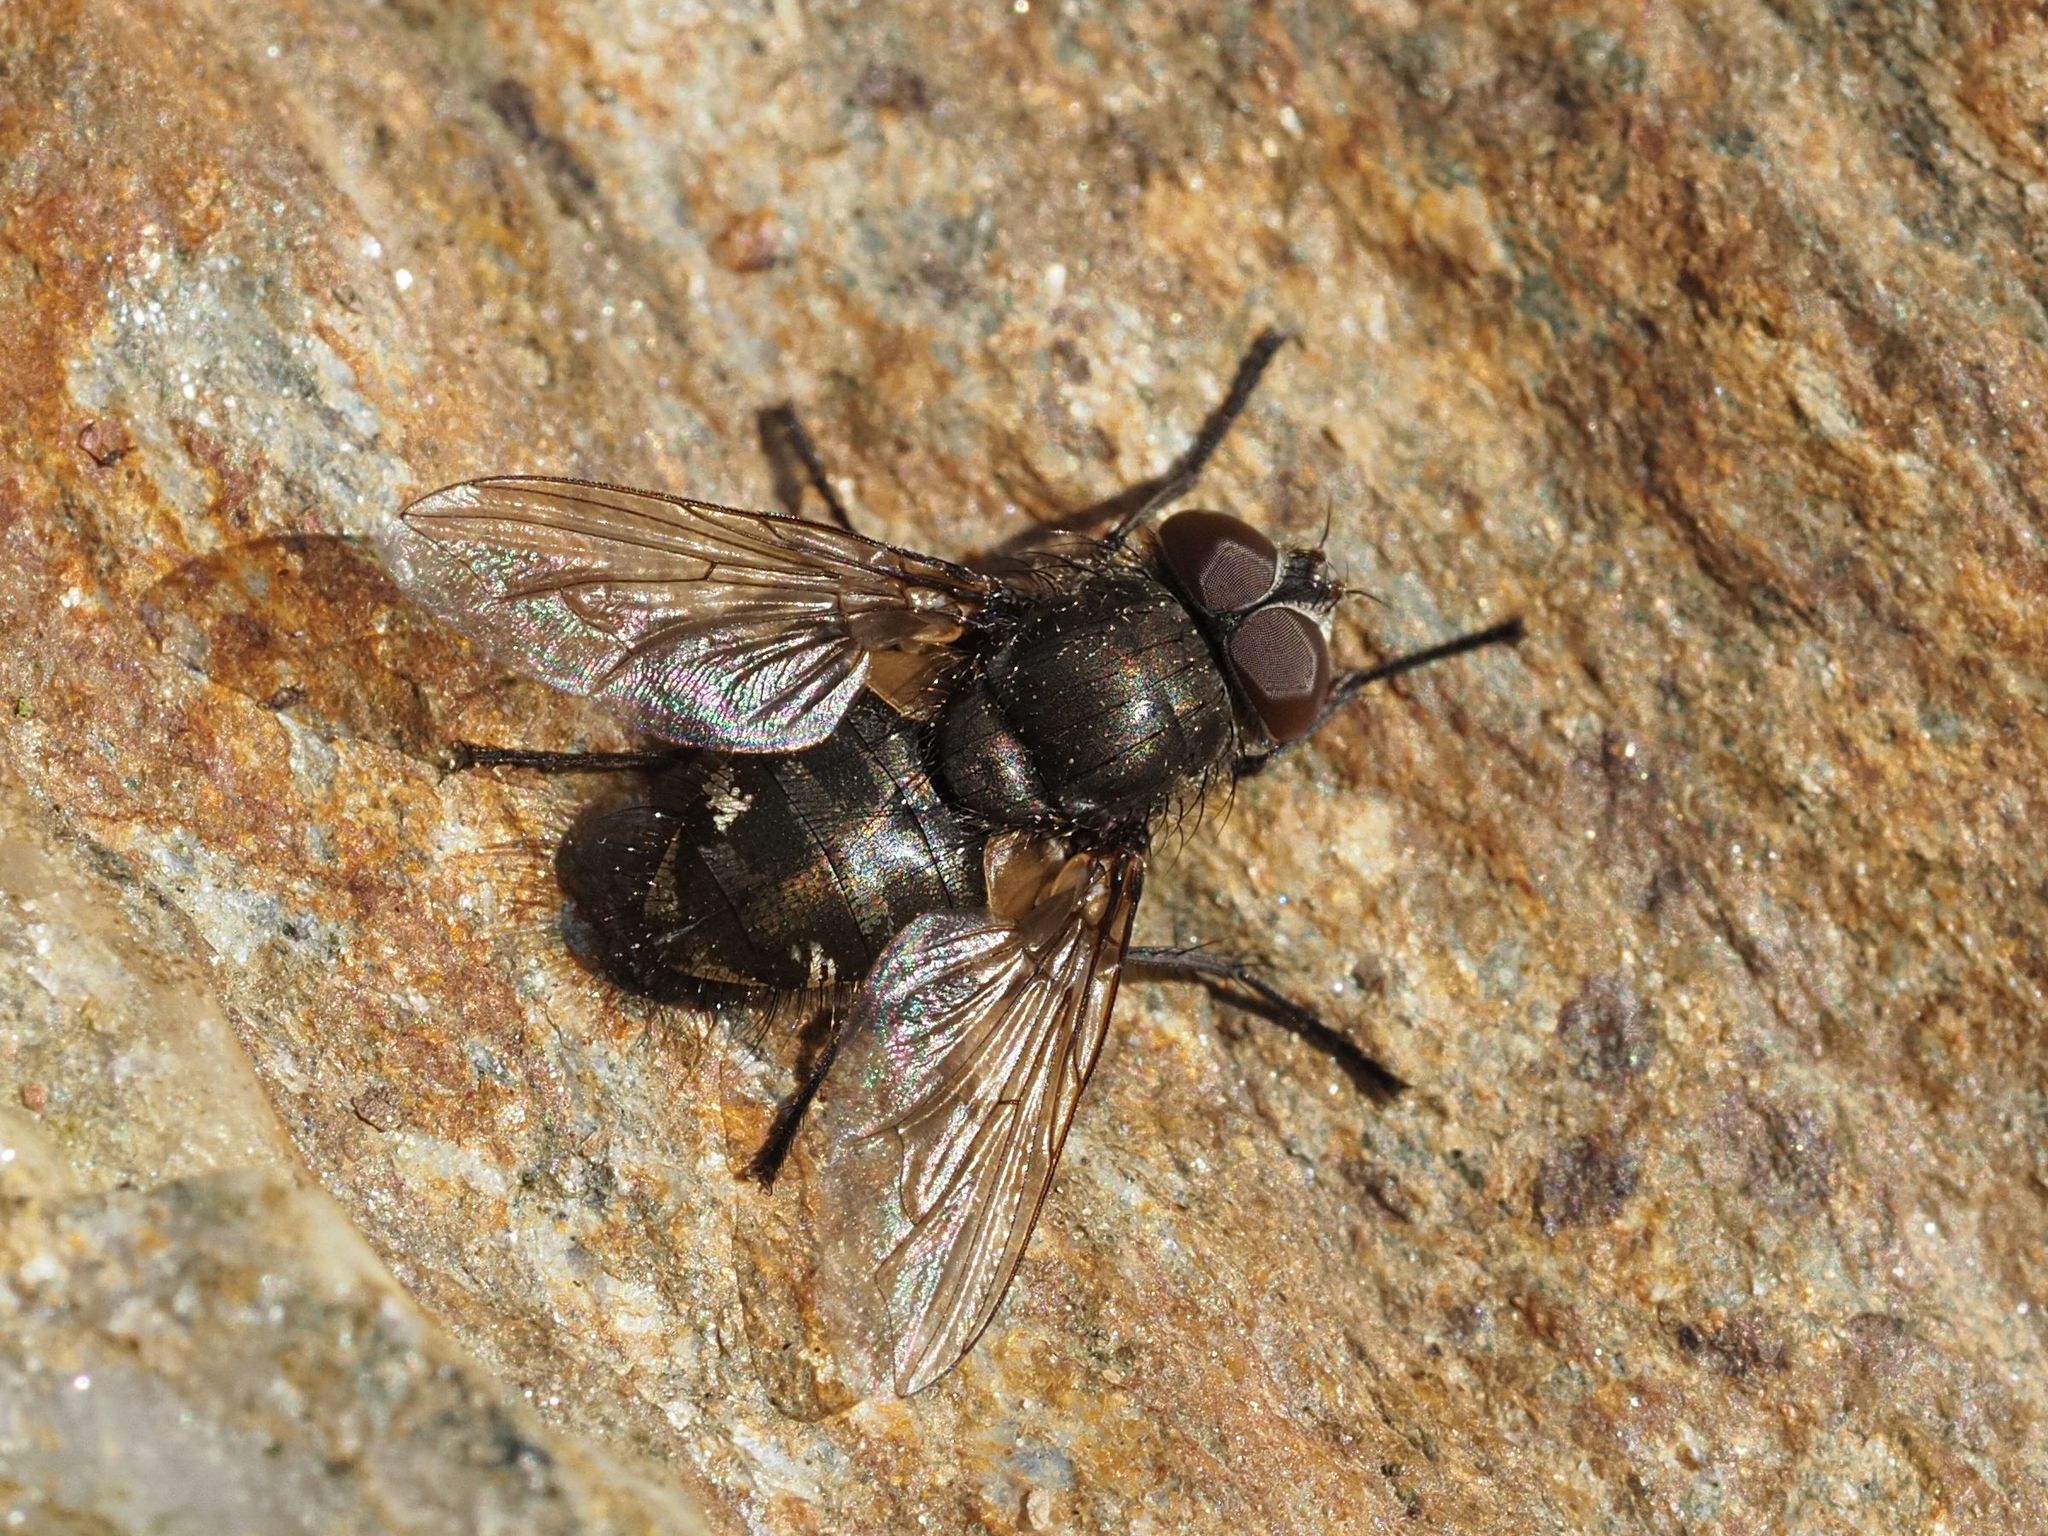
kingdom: Animalia
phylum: Arthropoda
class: Insecta
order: Diptera
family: Polleniidae
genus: Pollenia
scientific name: Pollenia intermedia
